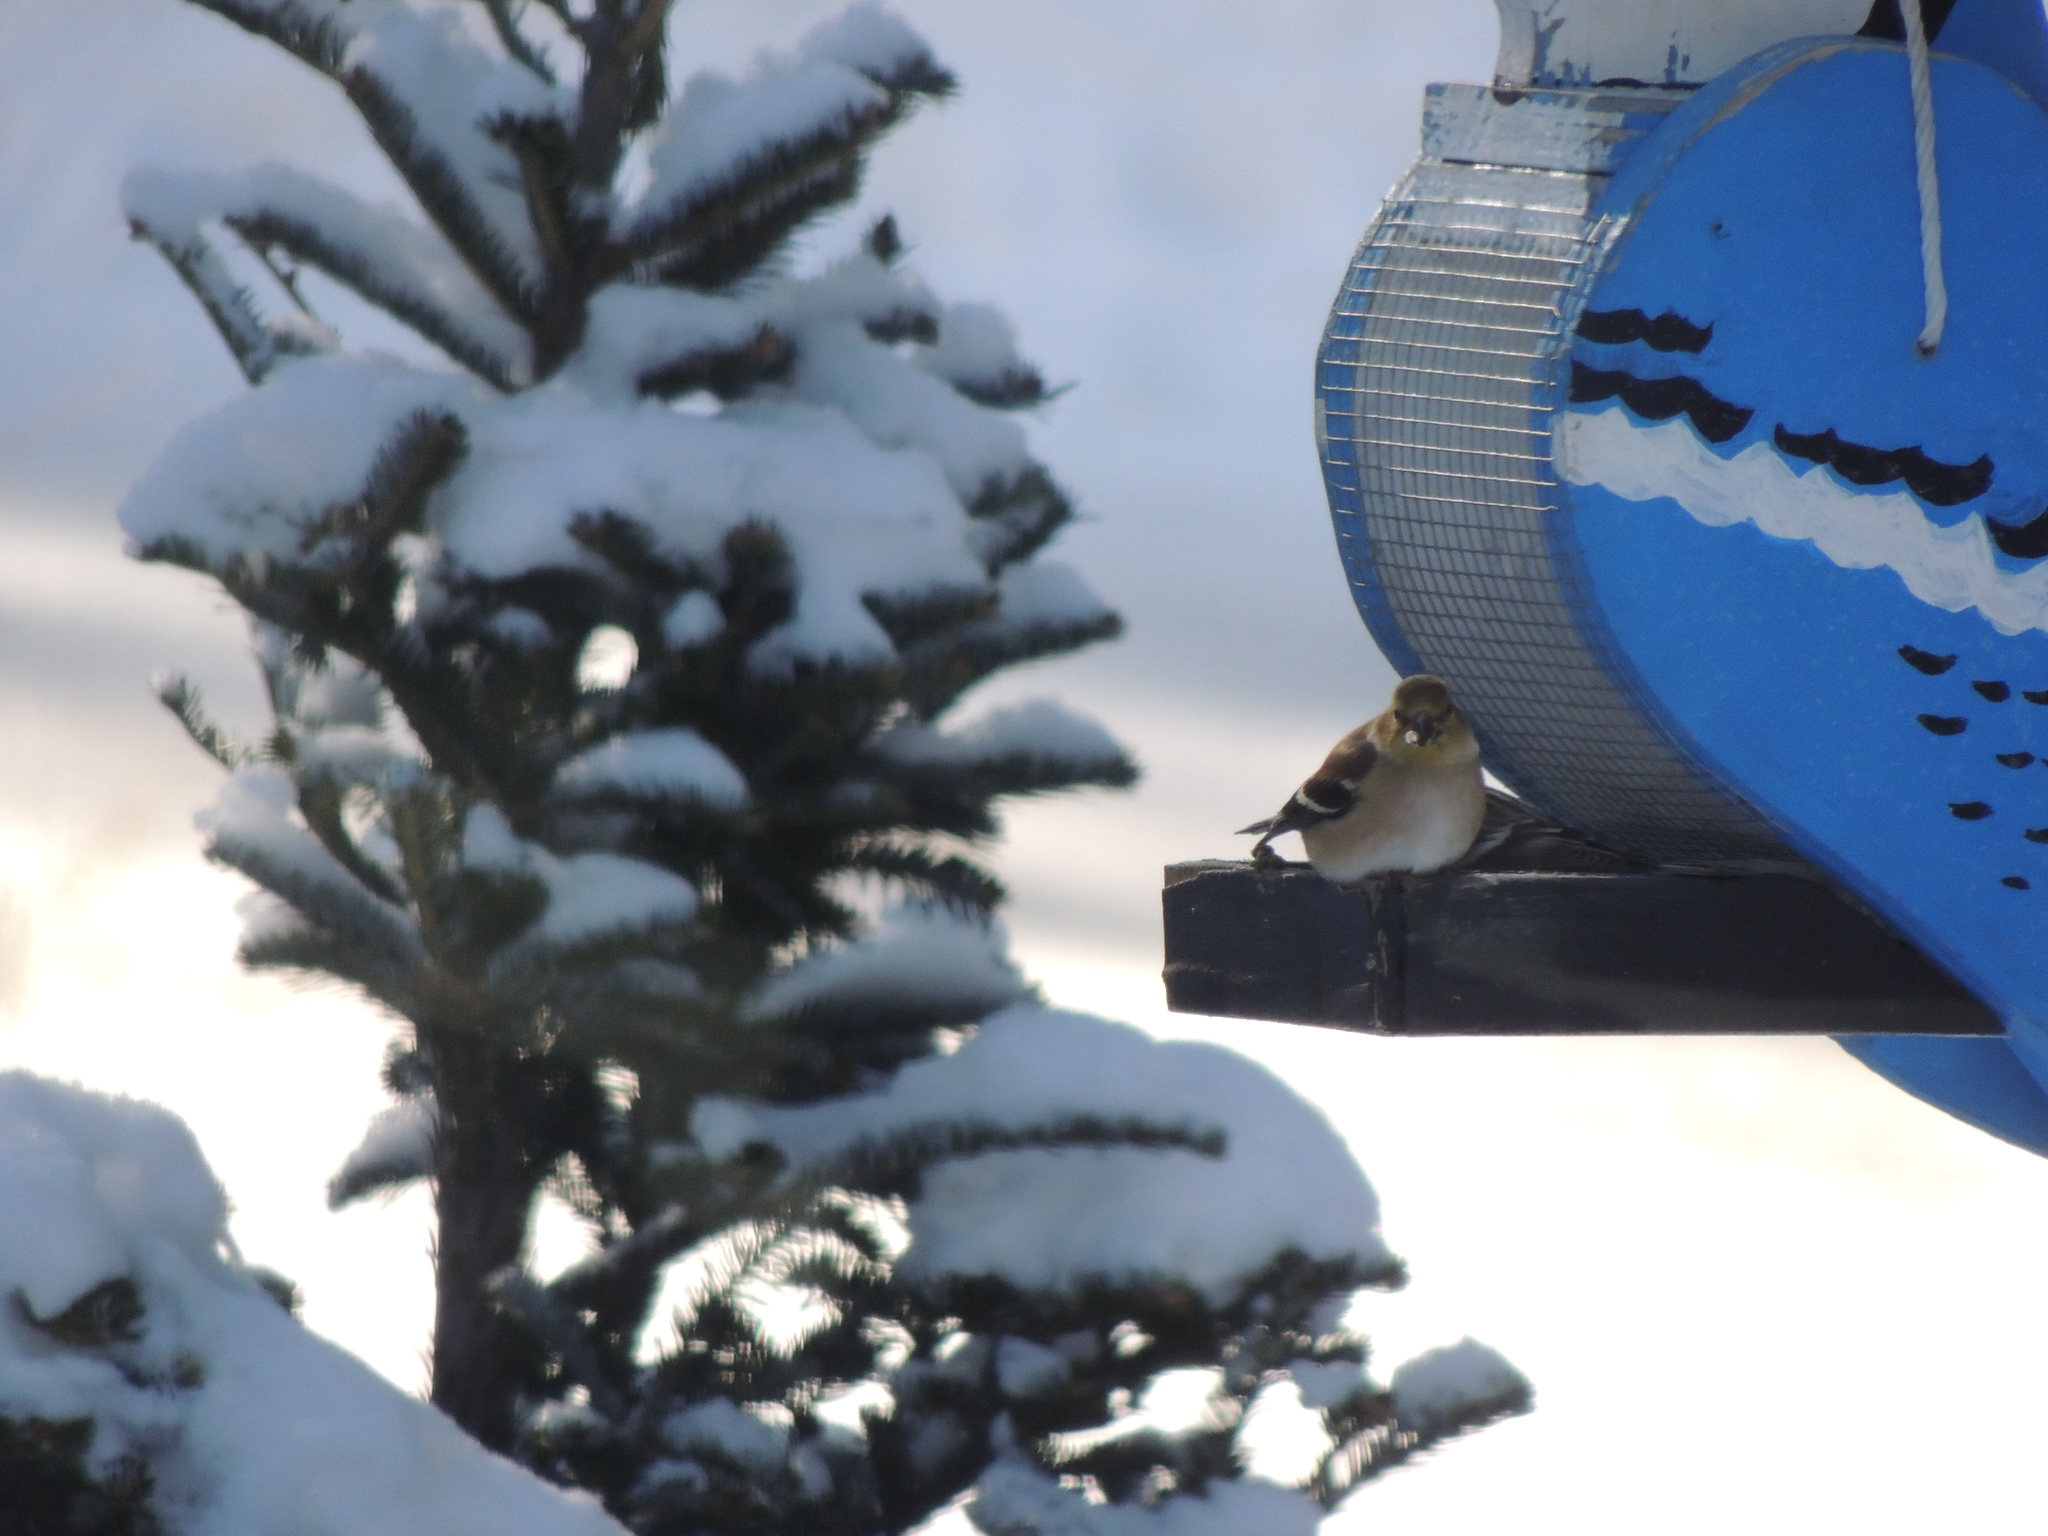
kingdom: Animalia
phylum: Chordata
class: Aves
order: Passeriformes
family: Fringillidae
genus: Spinus
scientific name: Spinus tristis
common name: American goldfinch
